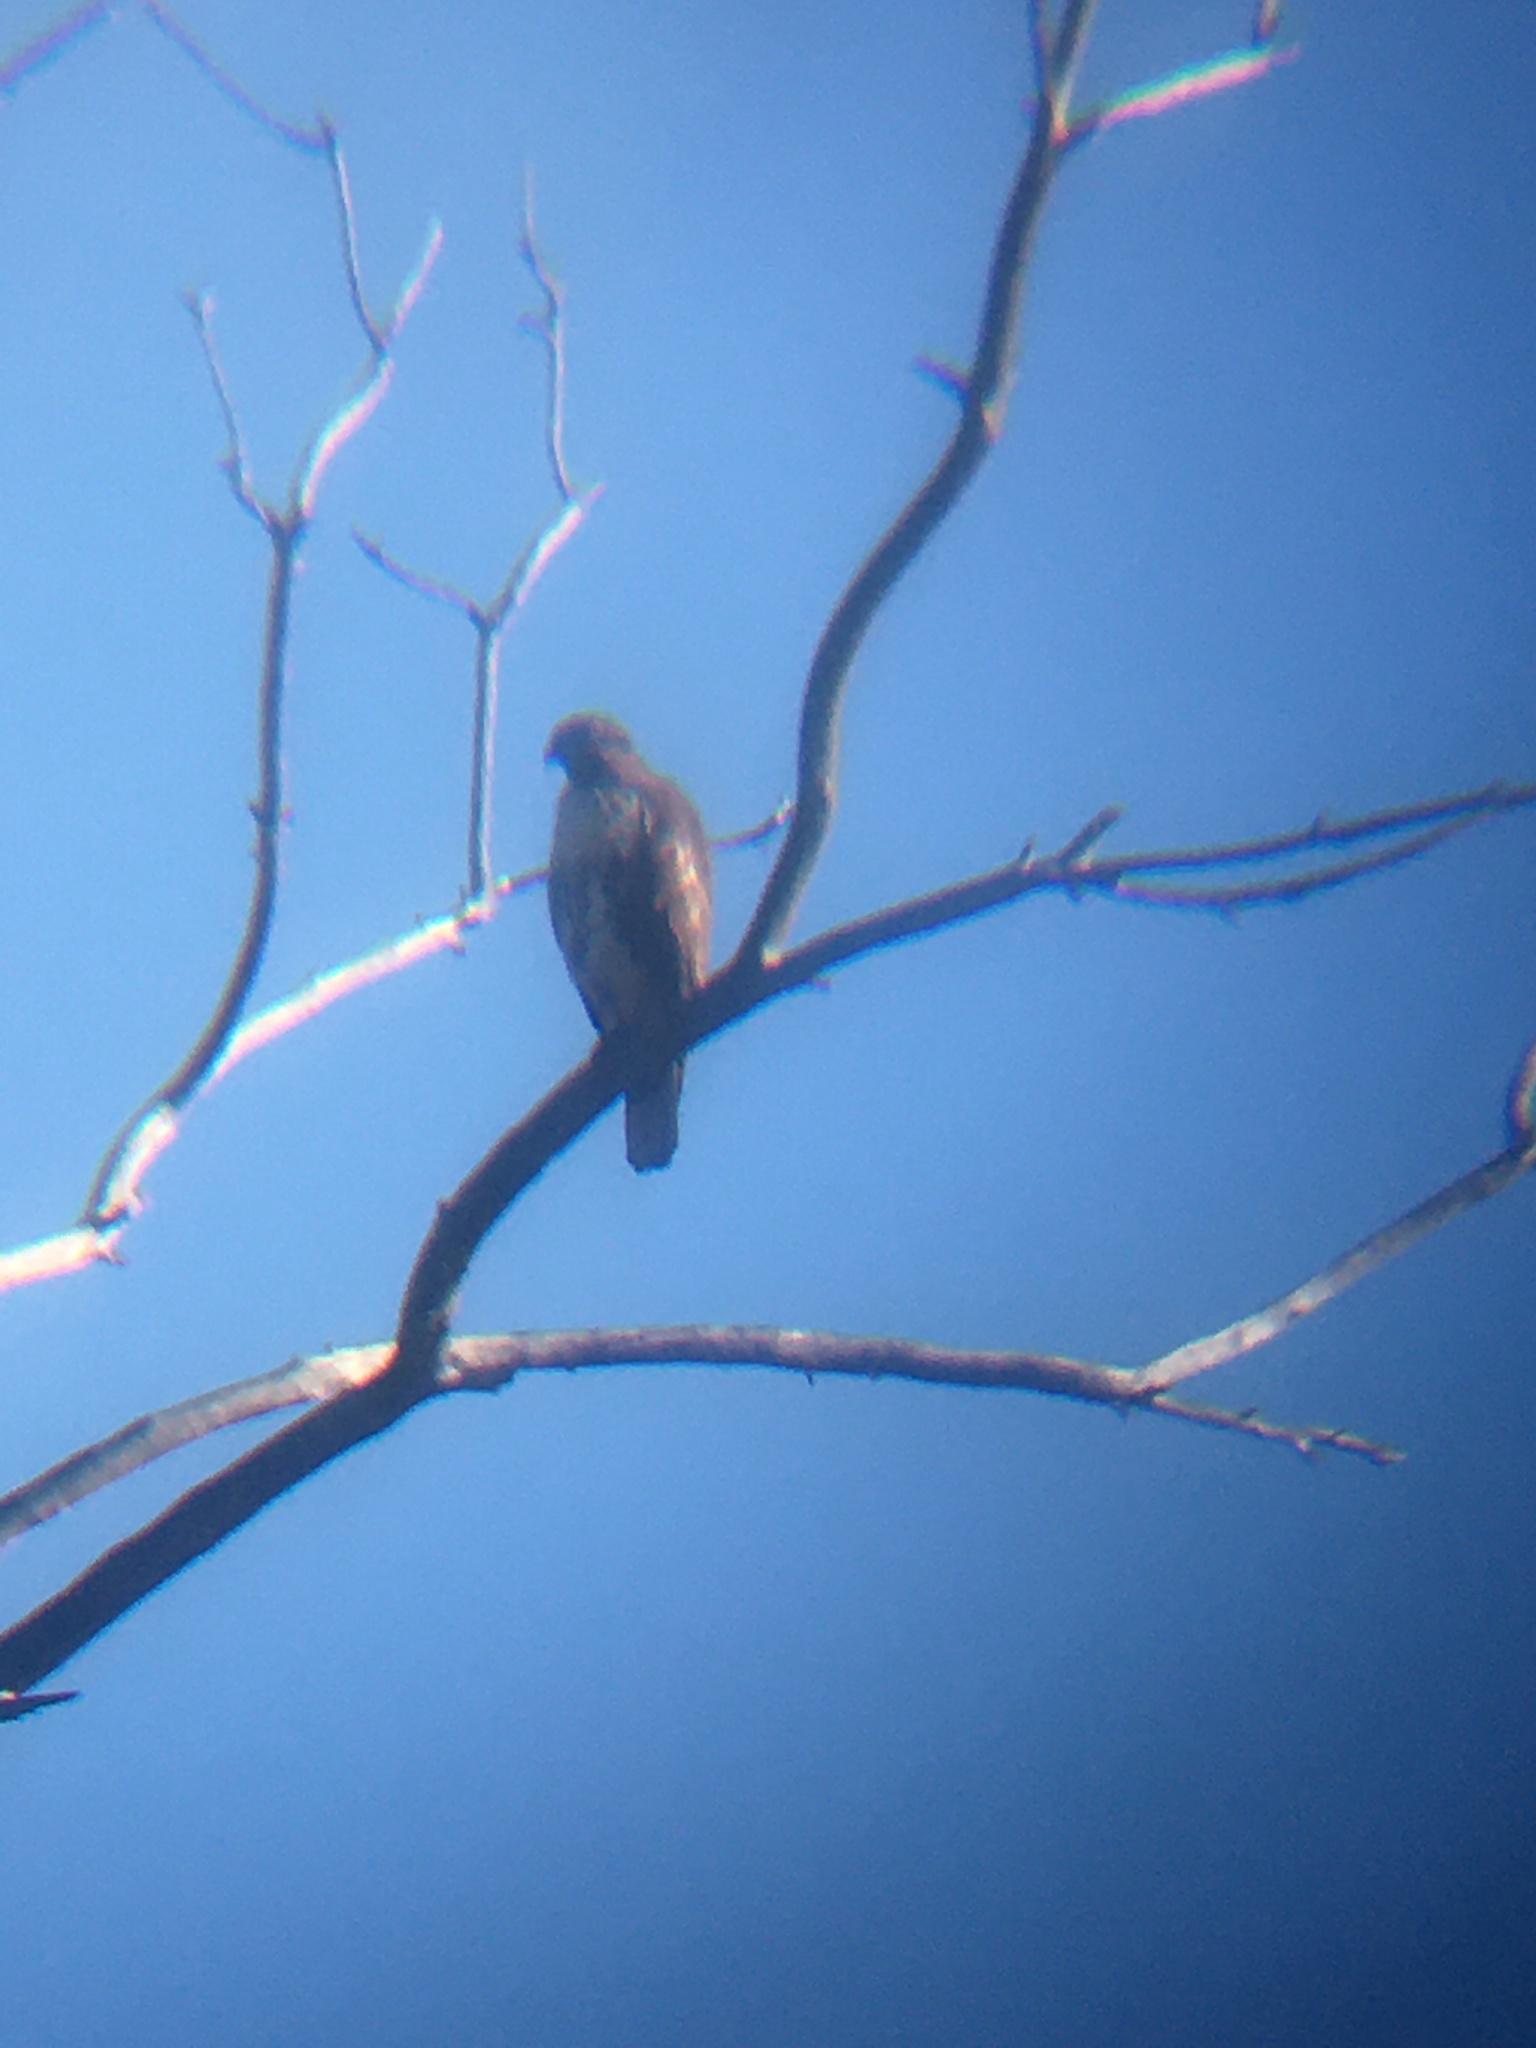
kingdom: Animalia
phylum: Chordata
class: Aves
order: Accipitriformes
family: Accipitridae
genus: Buteo
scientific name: Buteo lineatus
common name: Red-shouldered hawk
